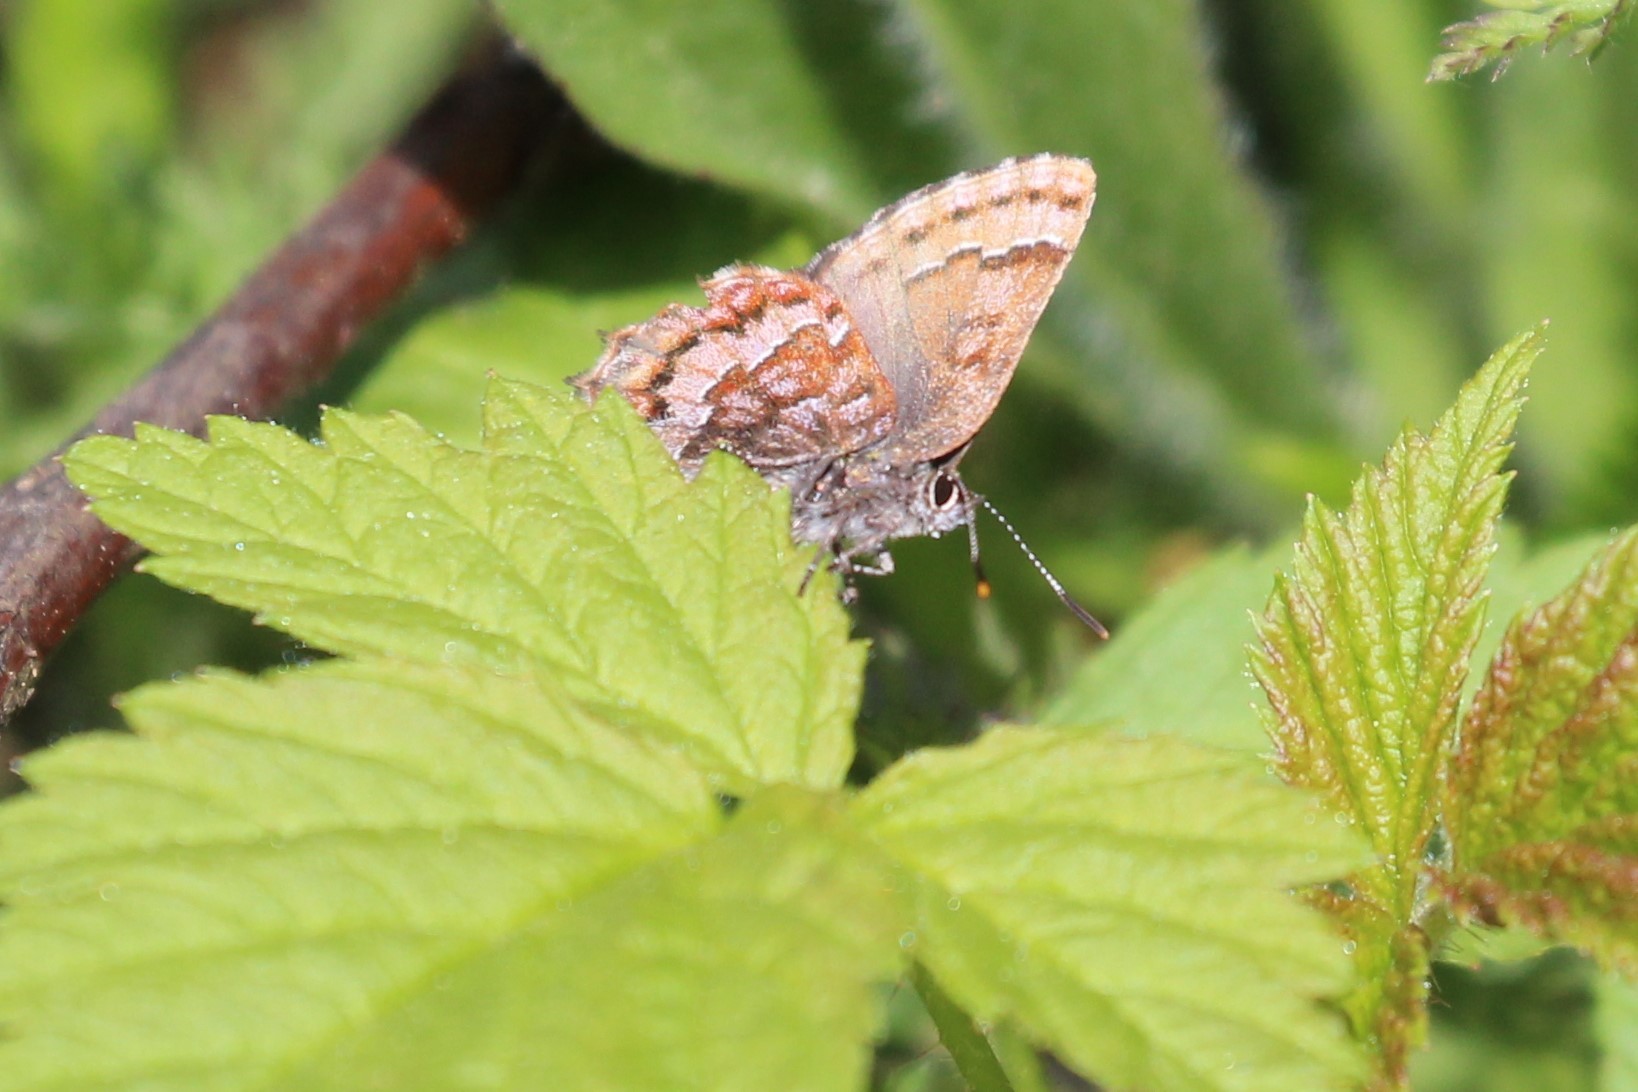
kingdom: Animalia
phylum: Arthropoda
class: Insecta
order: Lepidoptera
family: Lycaenidae
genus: Incisalia
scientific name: Incisalia niphon
